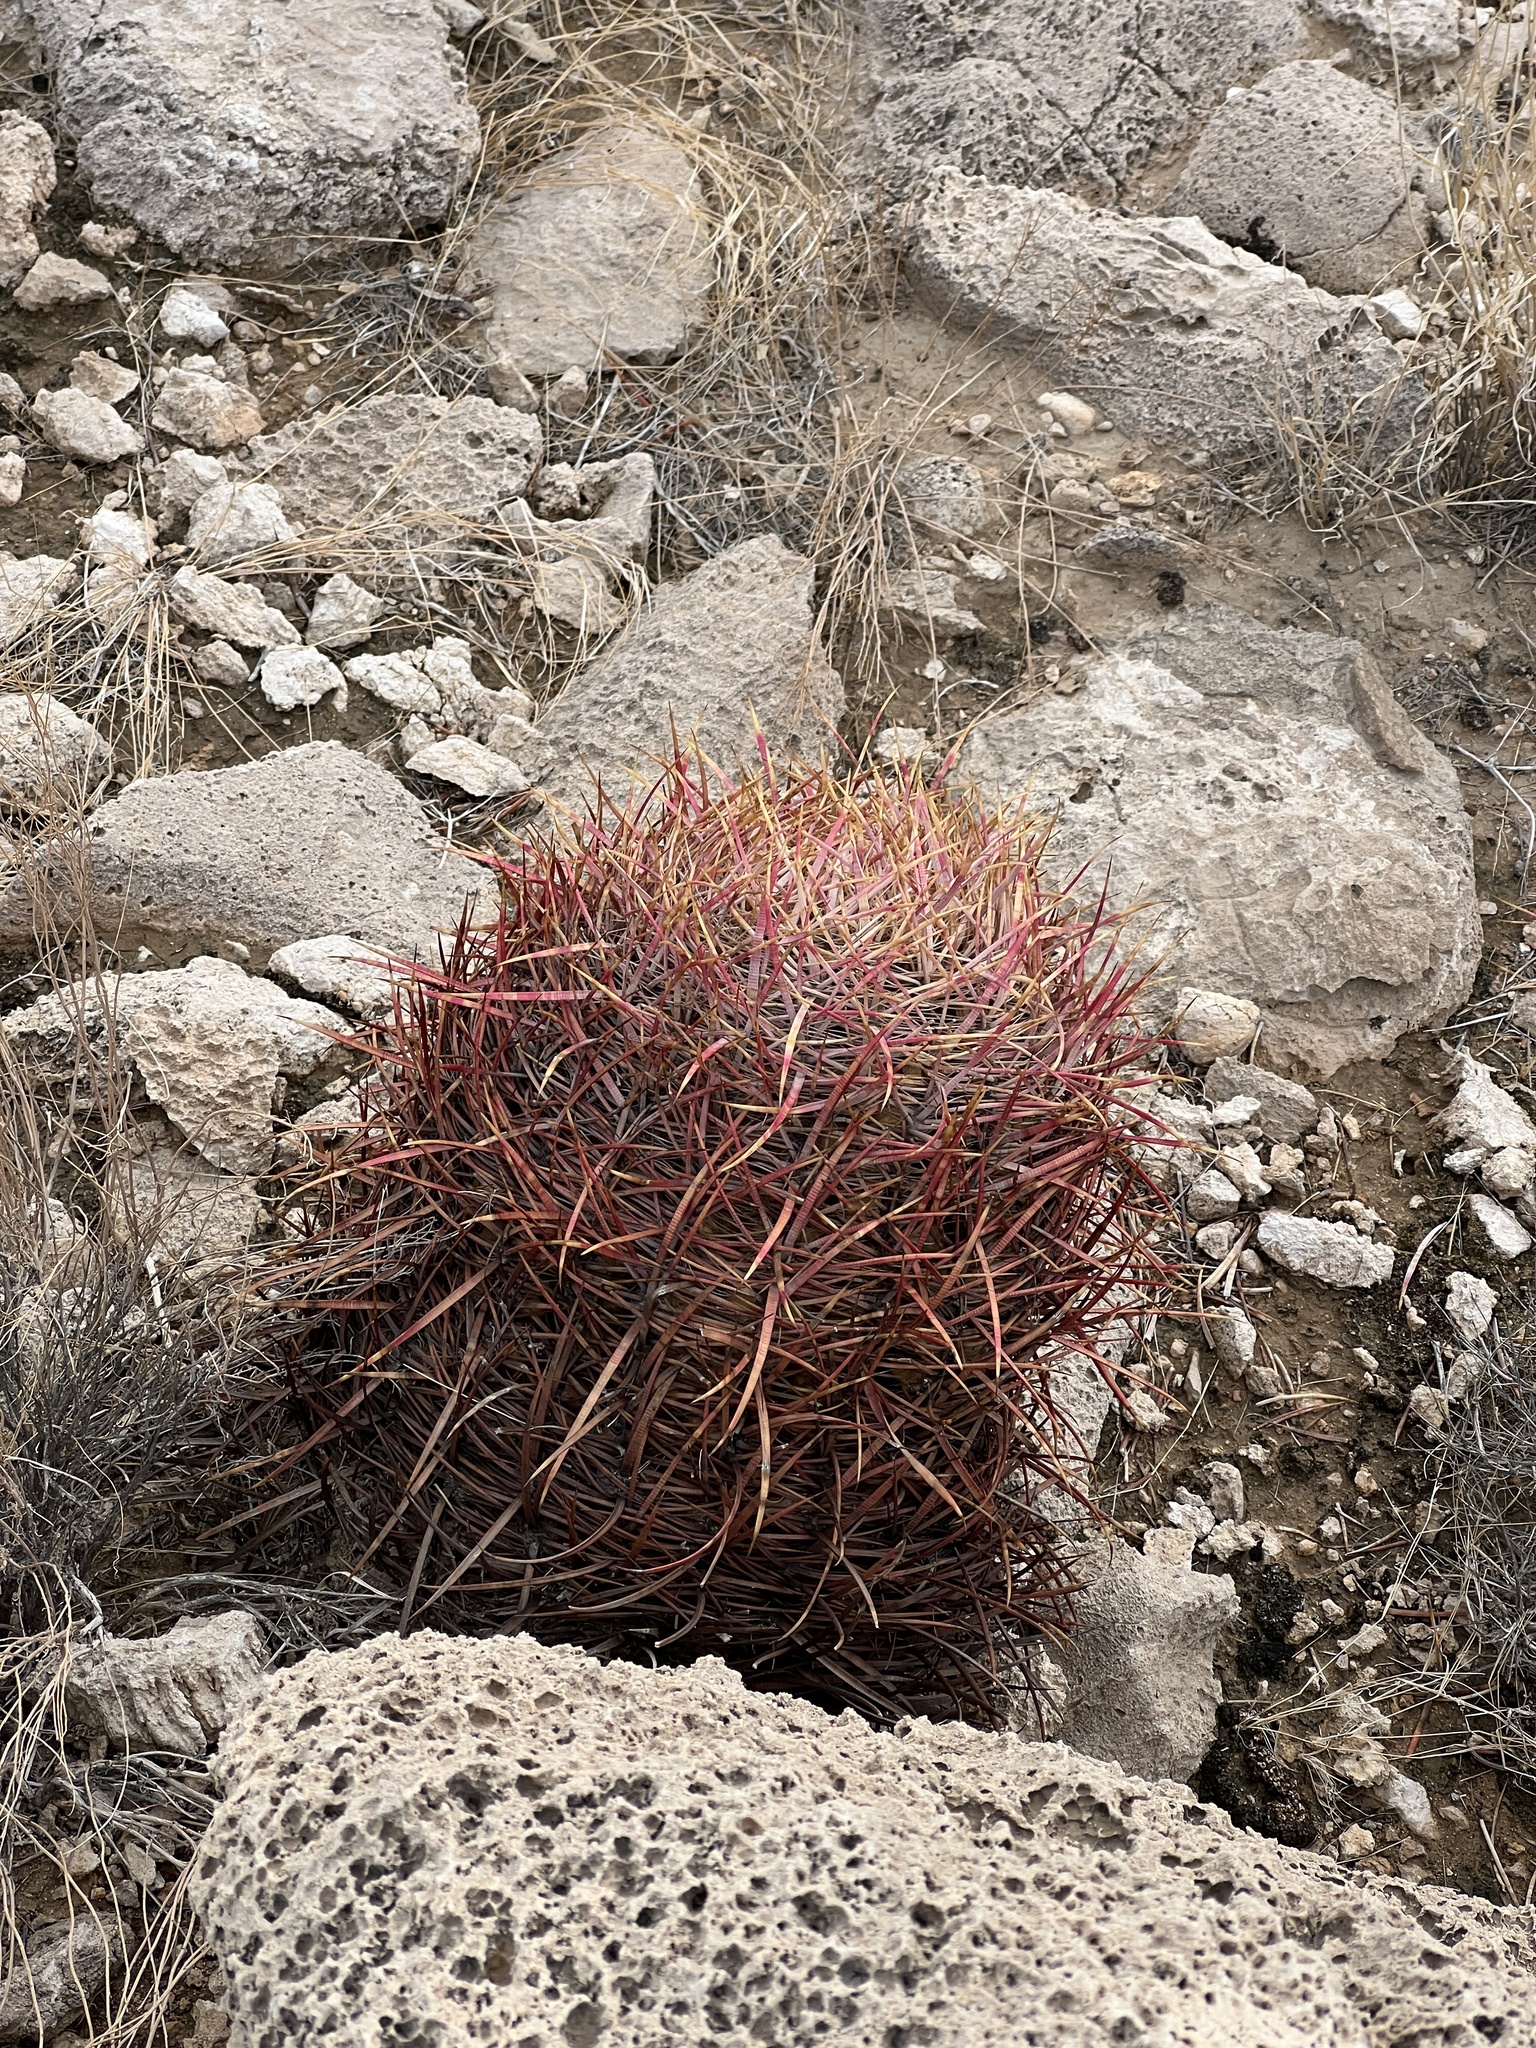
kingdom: Plantae
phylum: Tracheophyta
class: Magnoliopsida
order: Caryophyllales
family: Cactaceae
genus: Ferocactus
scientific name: Ferocactus cylindraceus
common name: California barrel cactus
